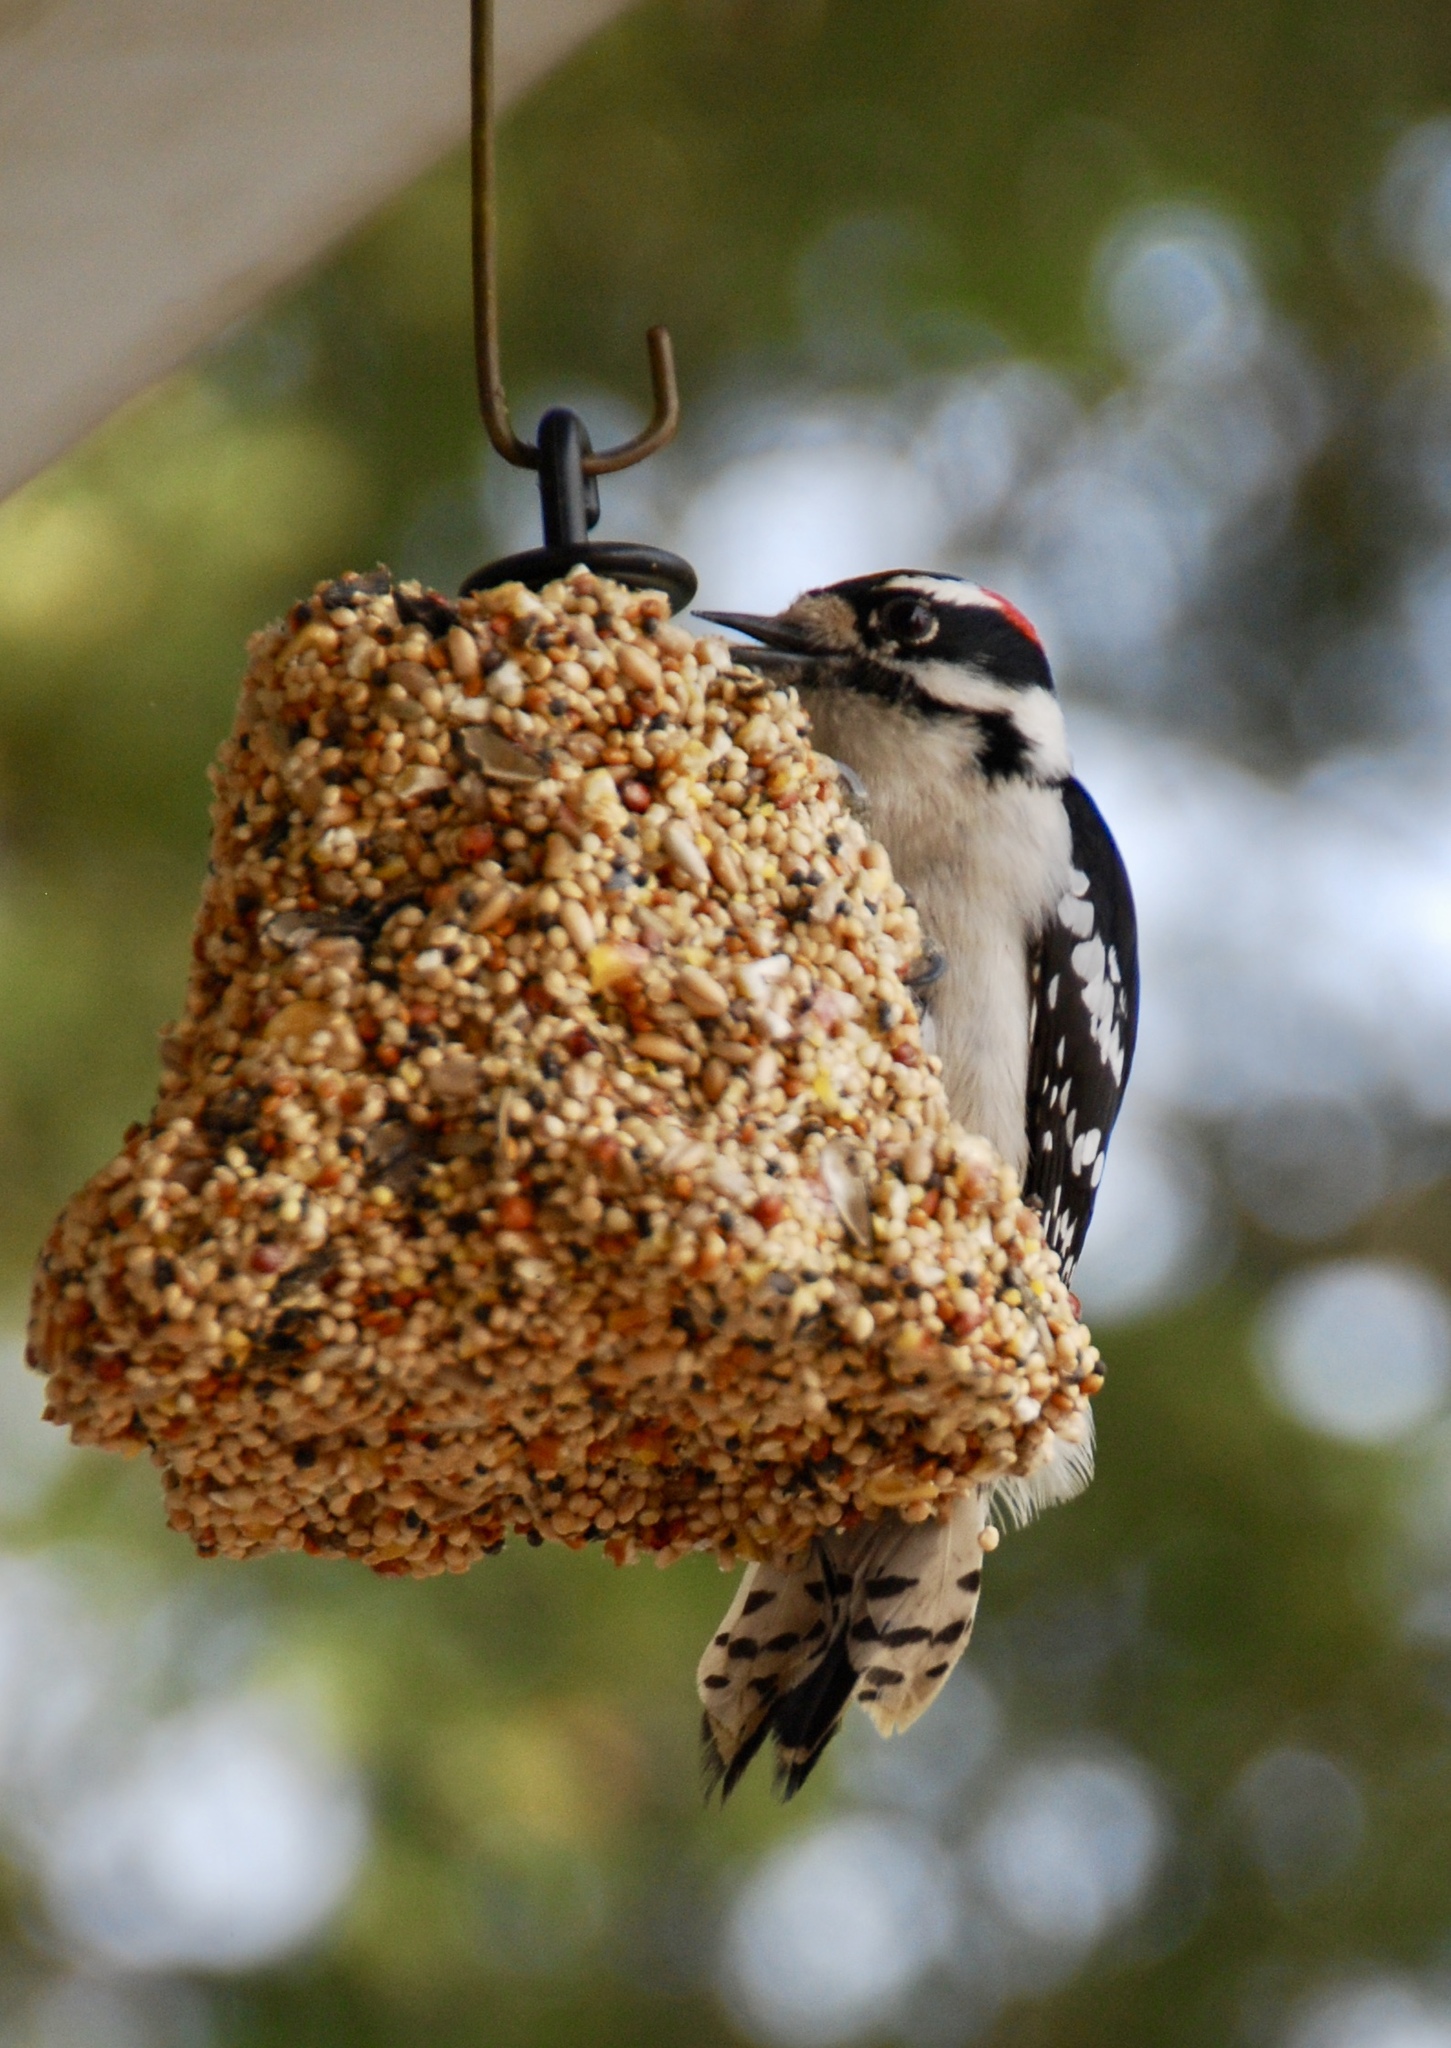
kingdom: Animalia
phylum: Chordata
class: Aves
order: Piciformes
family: Picidae
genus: Dryobates
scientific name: Dryobates pubescens
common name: Downy woodpecker
